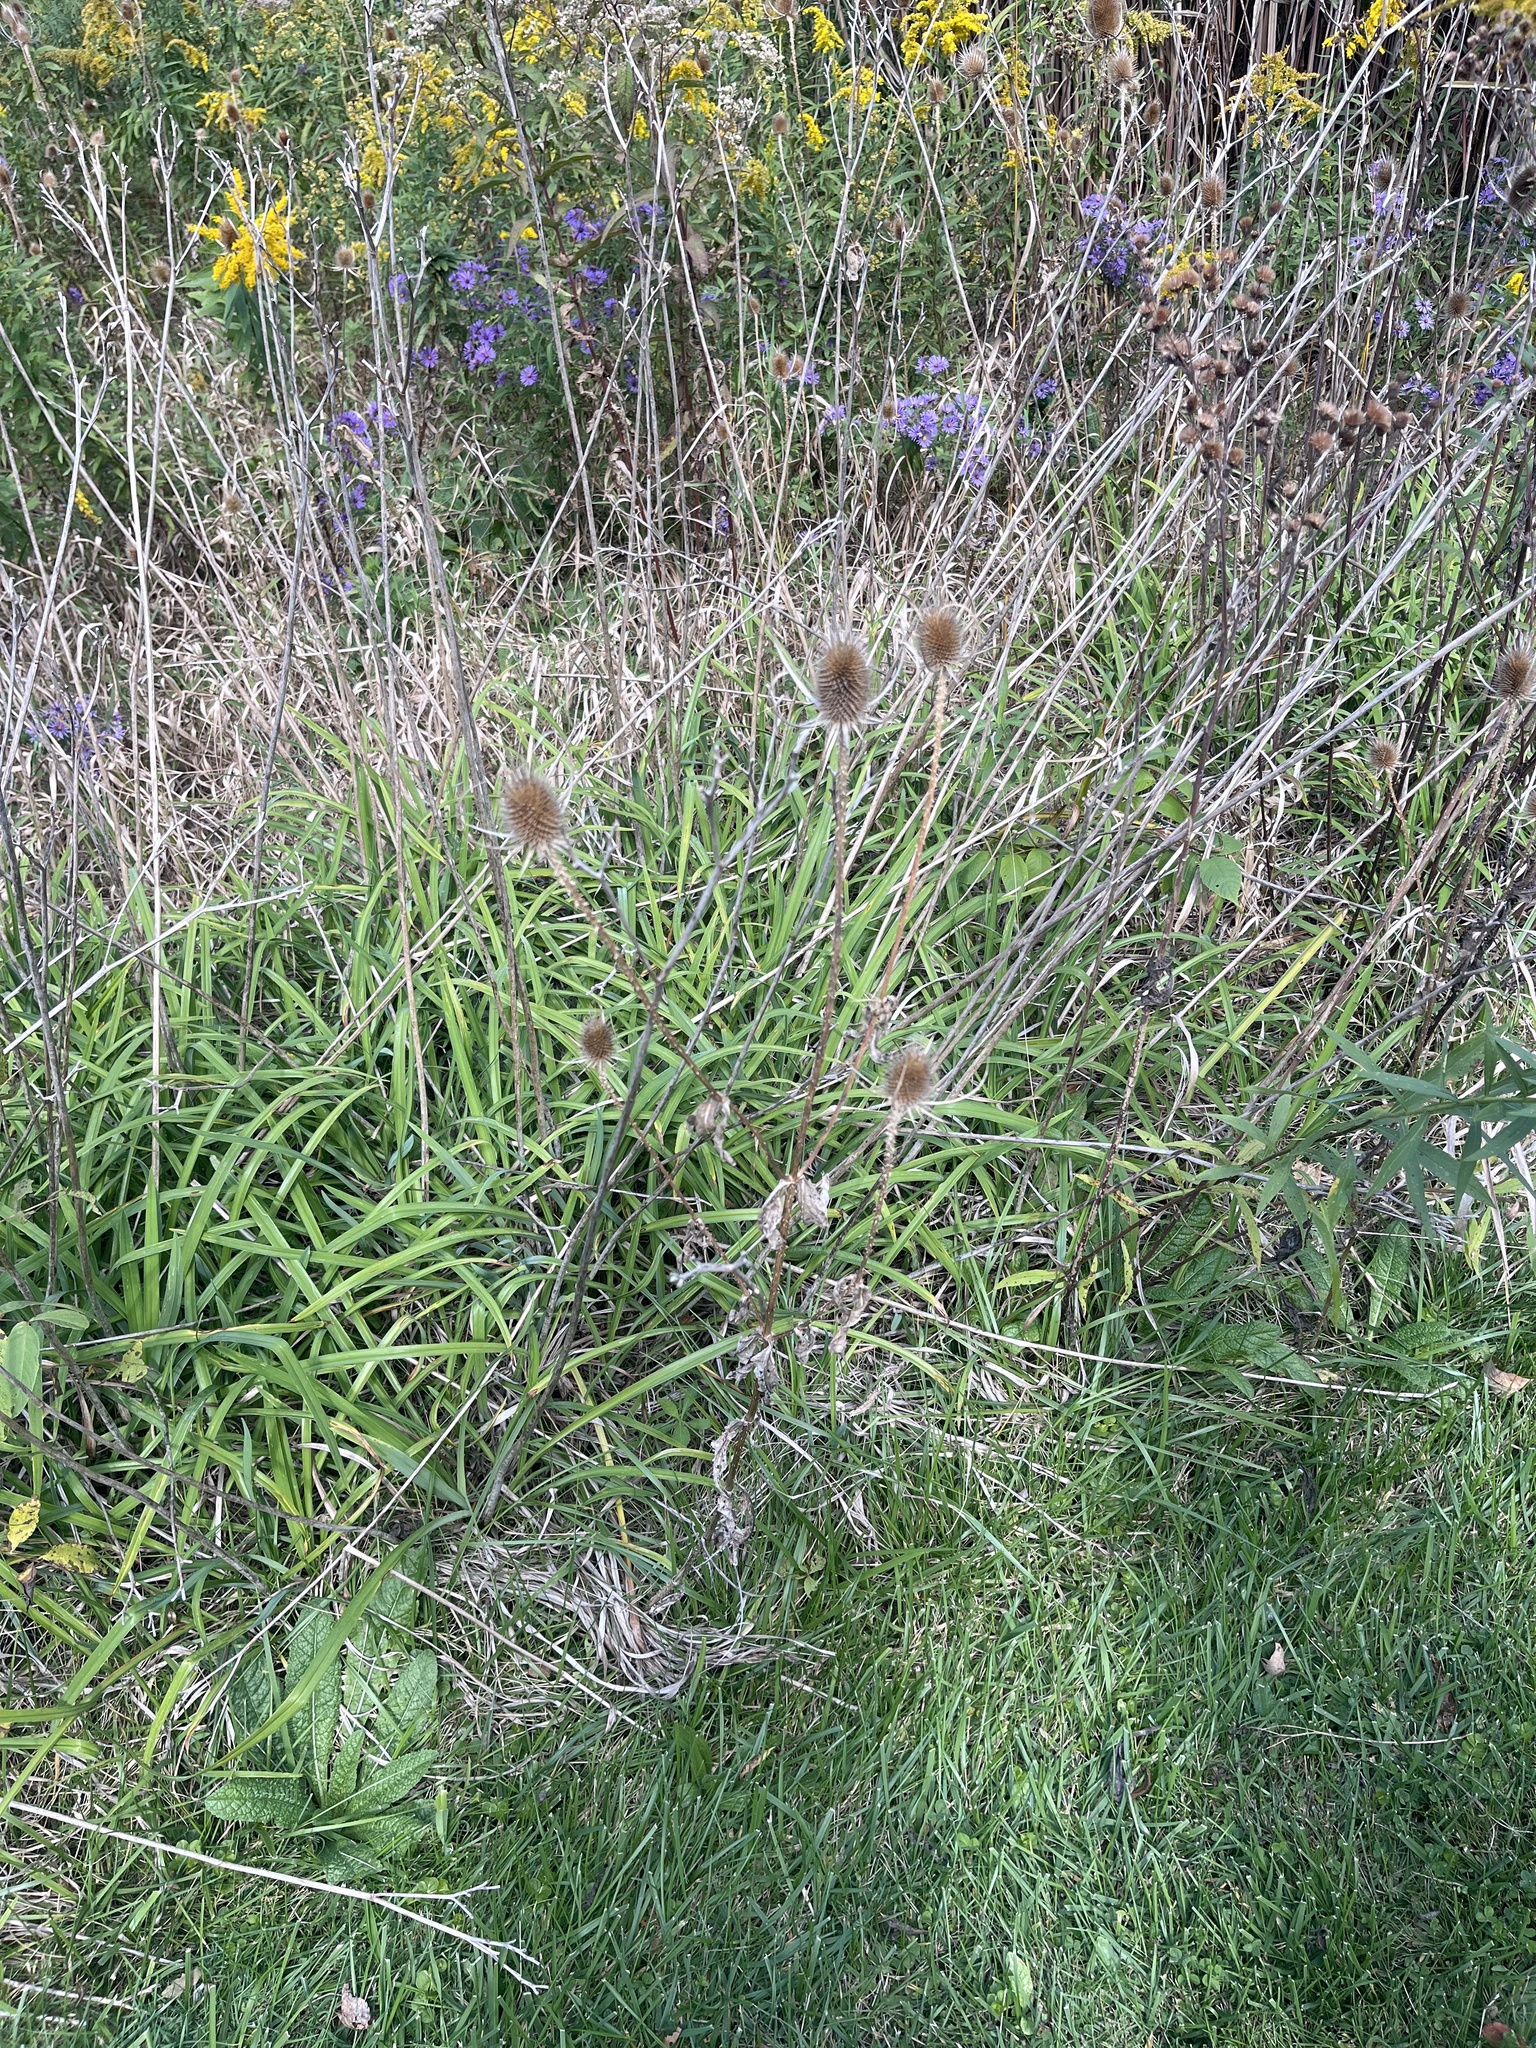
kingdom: Plantae
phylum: Tracheophyta
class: Magnoliopsida
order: Dipsacales
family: Caprifoliaceae
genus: Dipsacus
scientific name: Dipsacus fullonum
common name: Teasel
